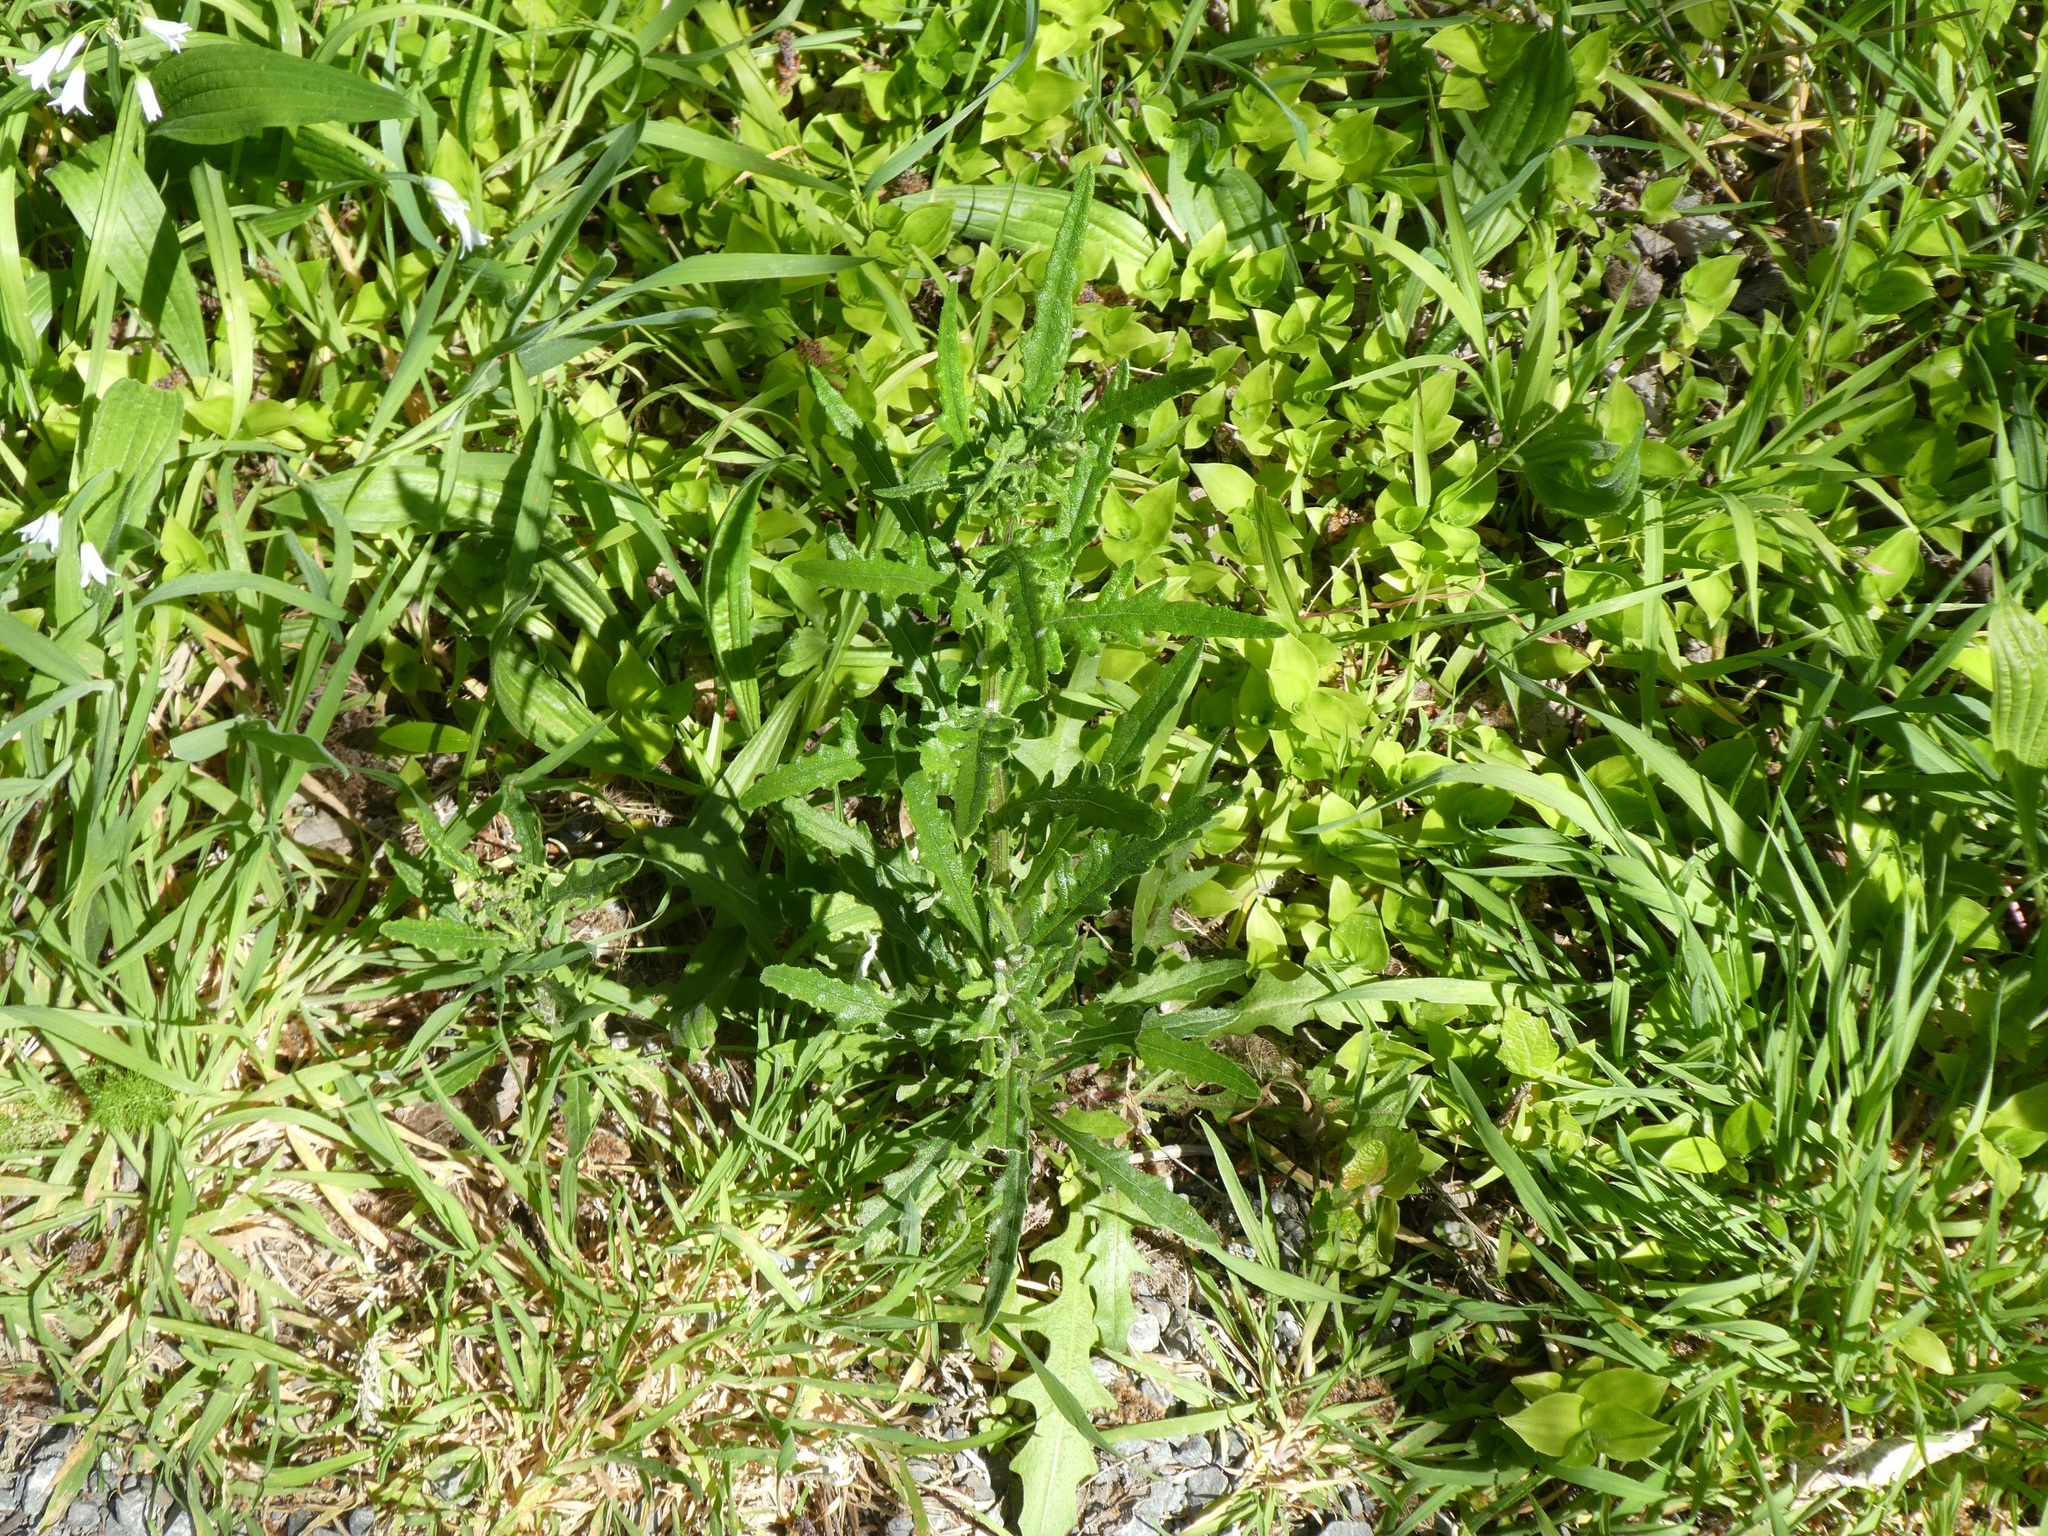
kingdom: Plantae
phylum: Tracheophyta
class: Magnoliopsida
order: Asterales
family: Asteraceae
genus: Senecio
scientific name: Senecio hispidulus
